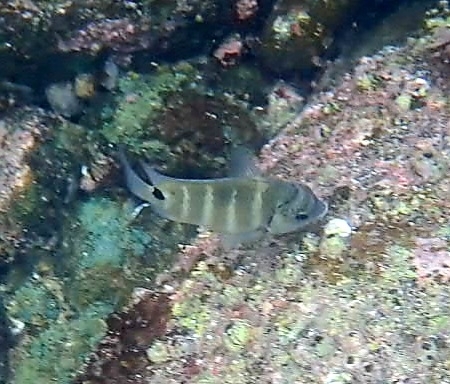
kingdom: Animalia
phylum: Chordata
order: Perciformes
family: Pomacentridae
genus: Abudefduf
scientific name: Abudefduf sordidus
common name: Blackspot sergeant
